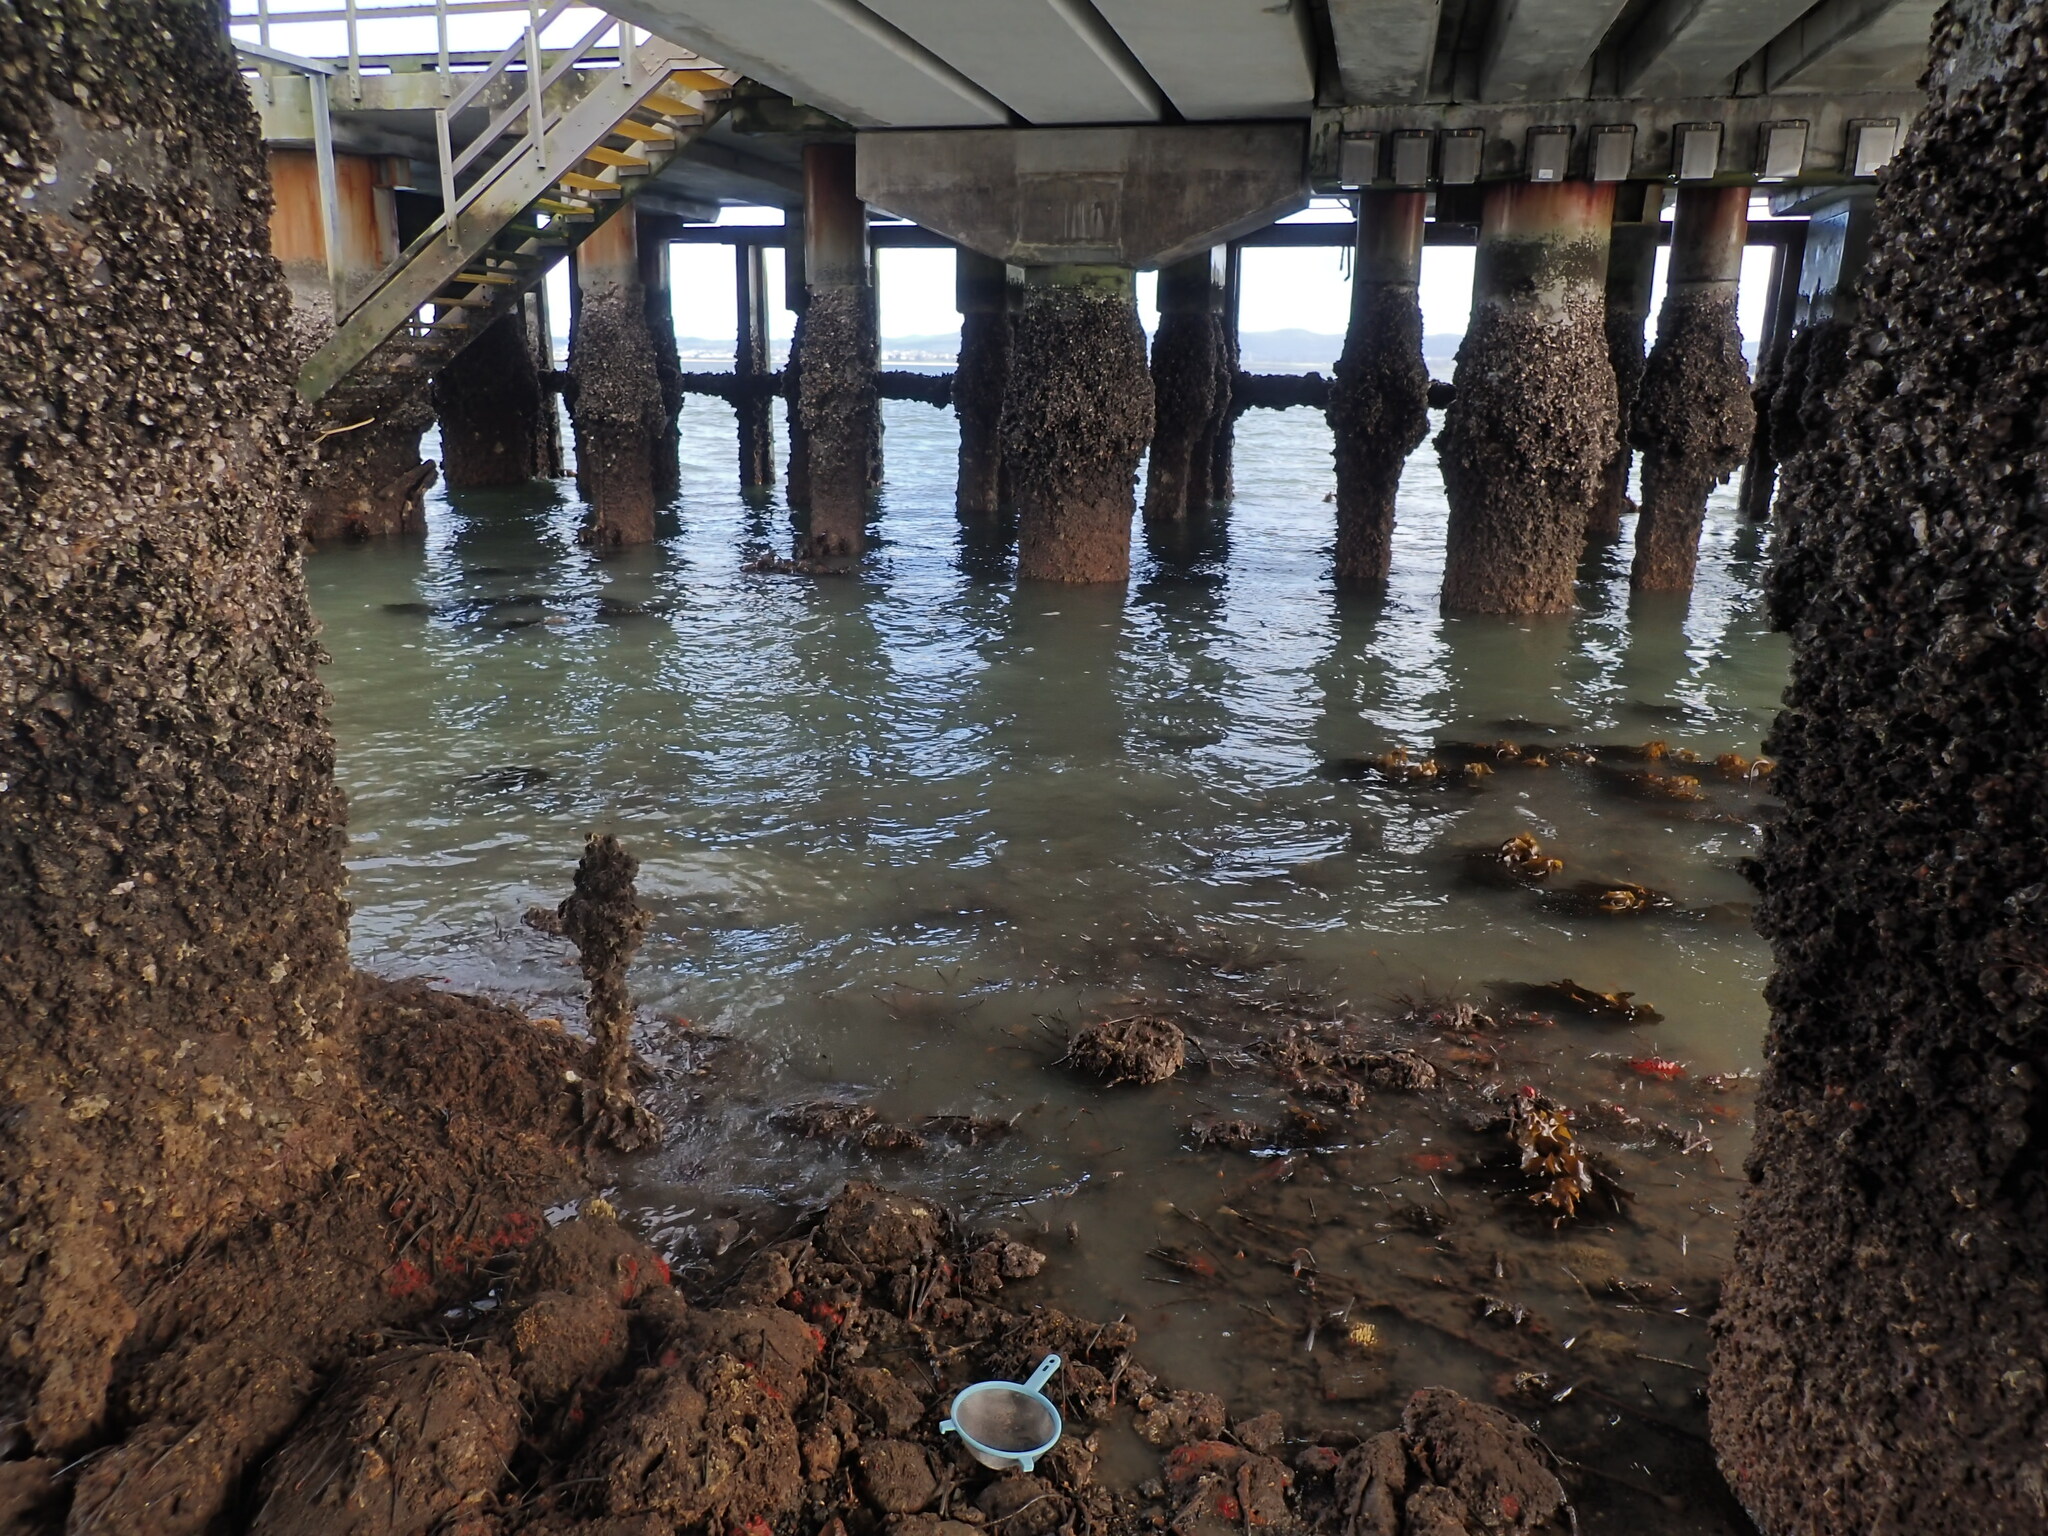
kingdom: Animalia
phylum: Annelida
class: Polychaeta
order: Sabellida
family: Sabellidae
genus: Sabella
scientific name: Sabella spallanzanii
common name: Feather duster worm
